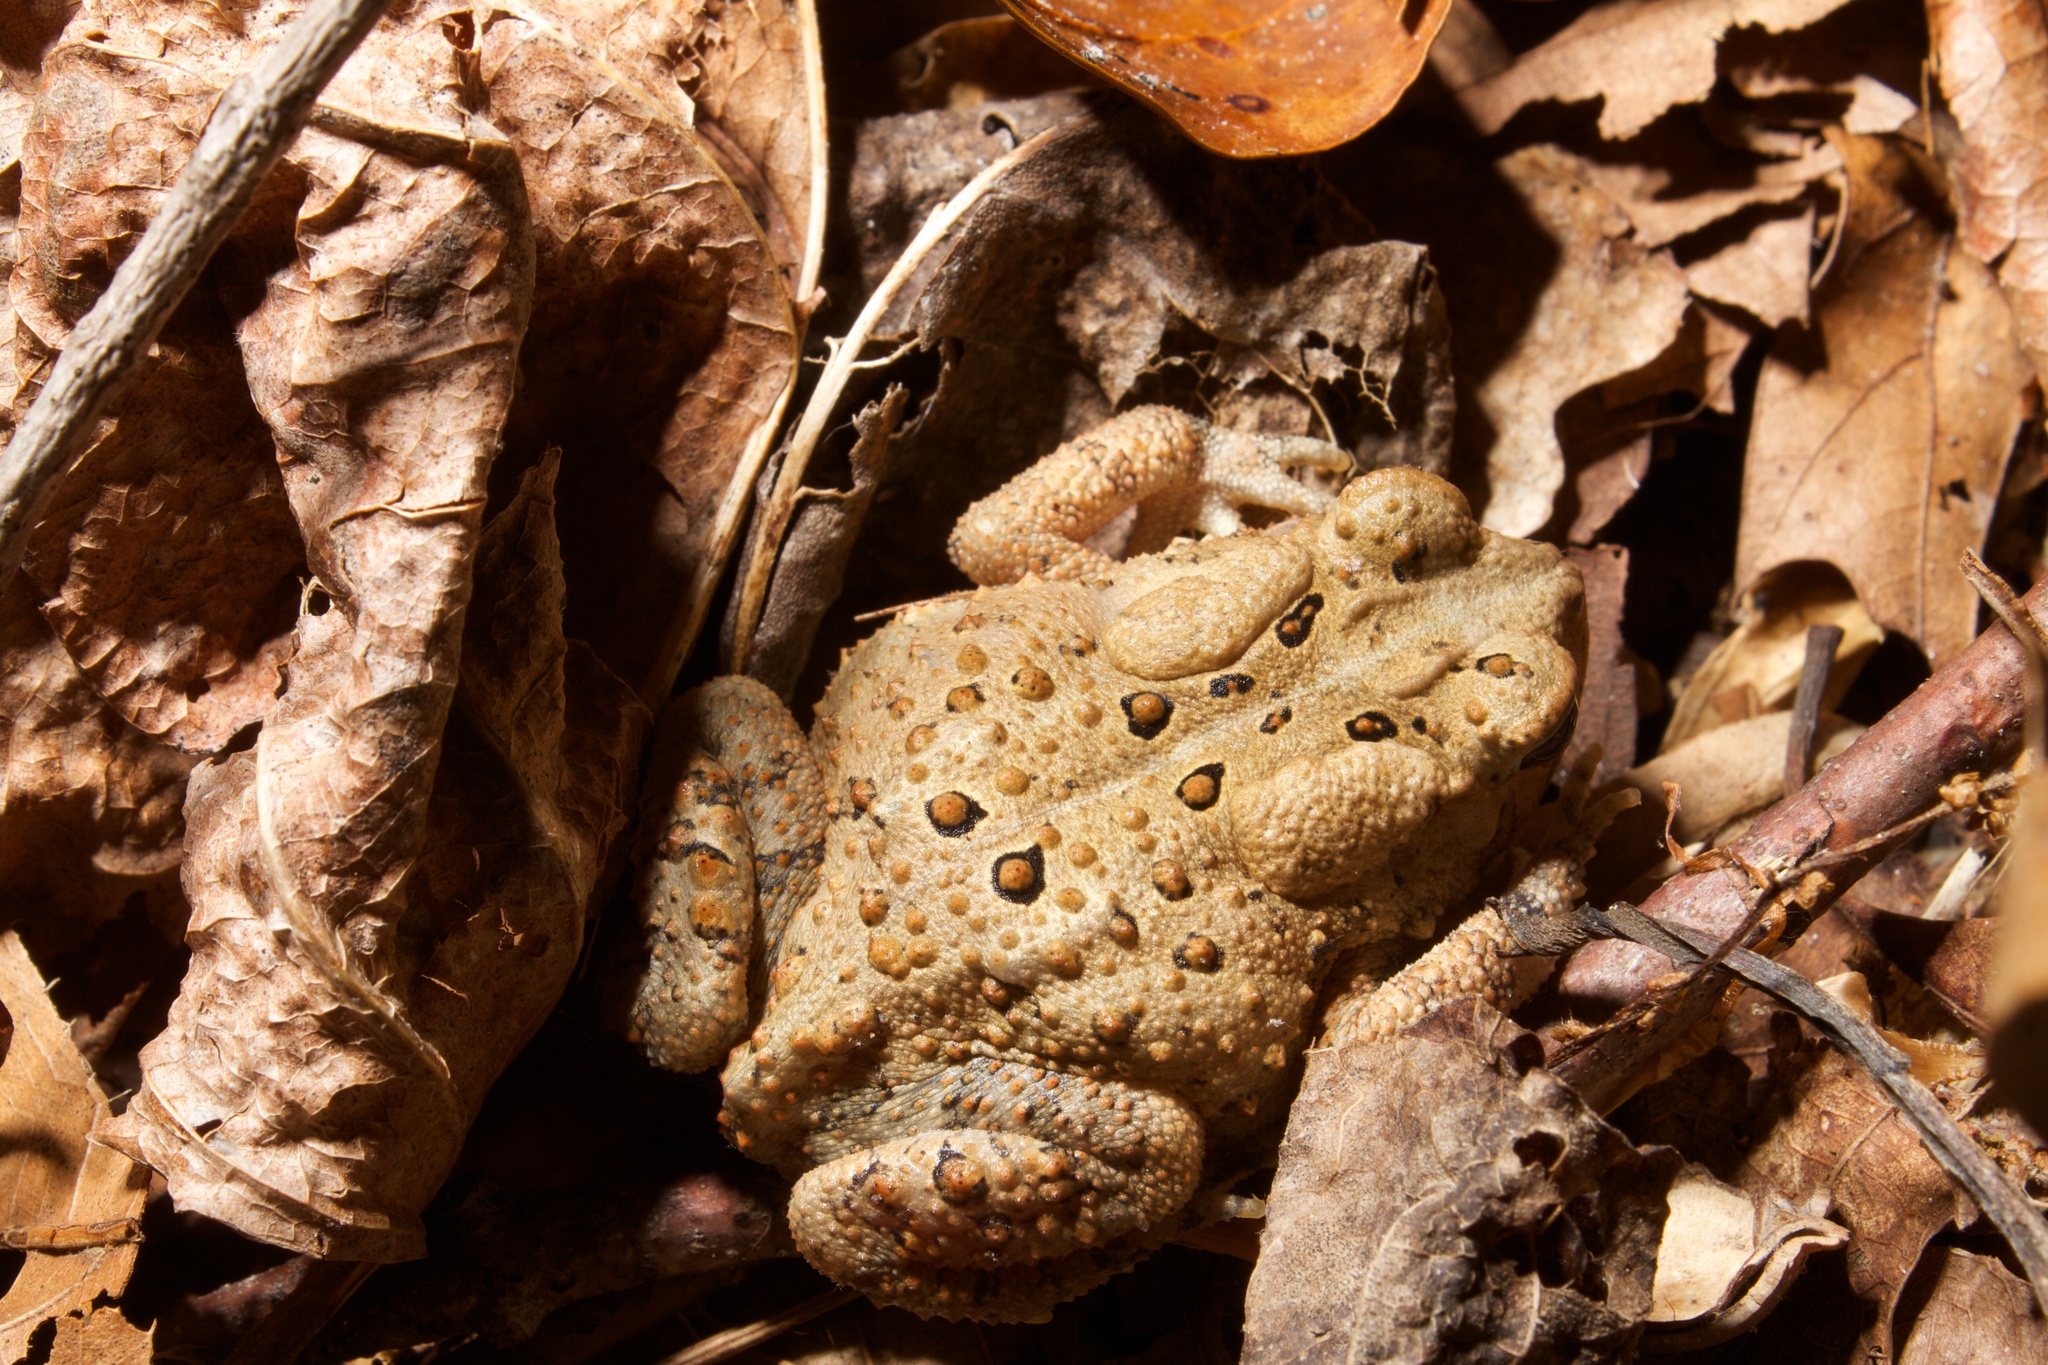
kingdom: Animalia
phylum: Chordata
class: Amphibia
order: Anura
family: Bufonidae
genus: Anaxyrus
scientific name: Anaxyrus americanus
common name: American toad
